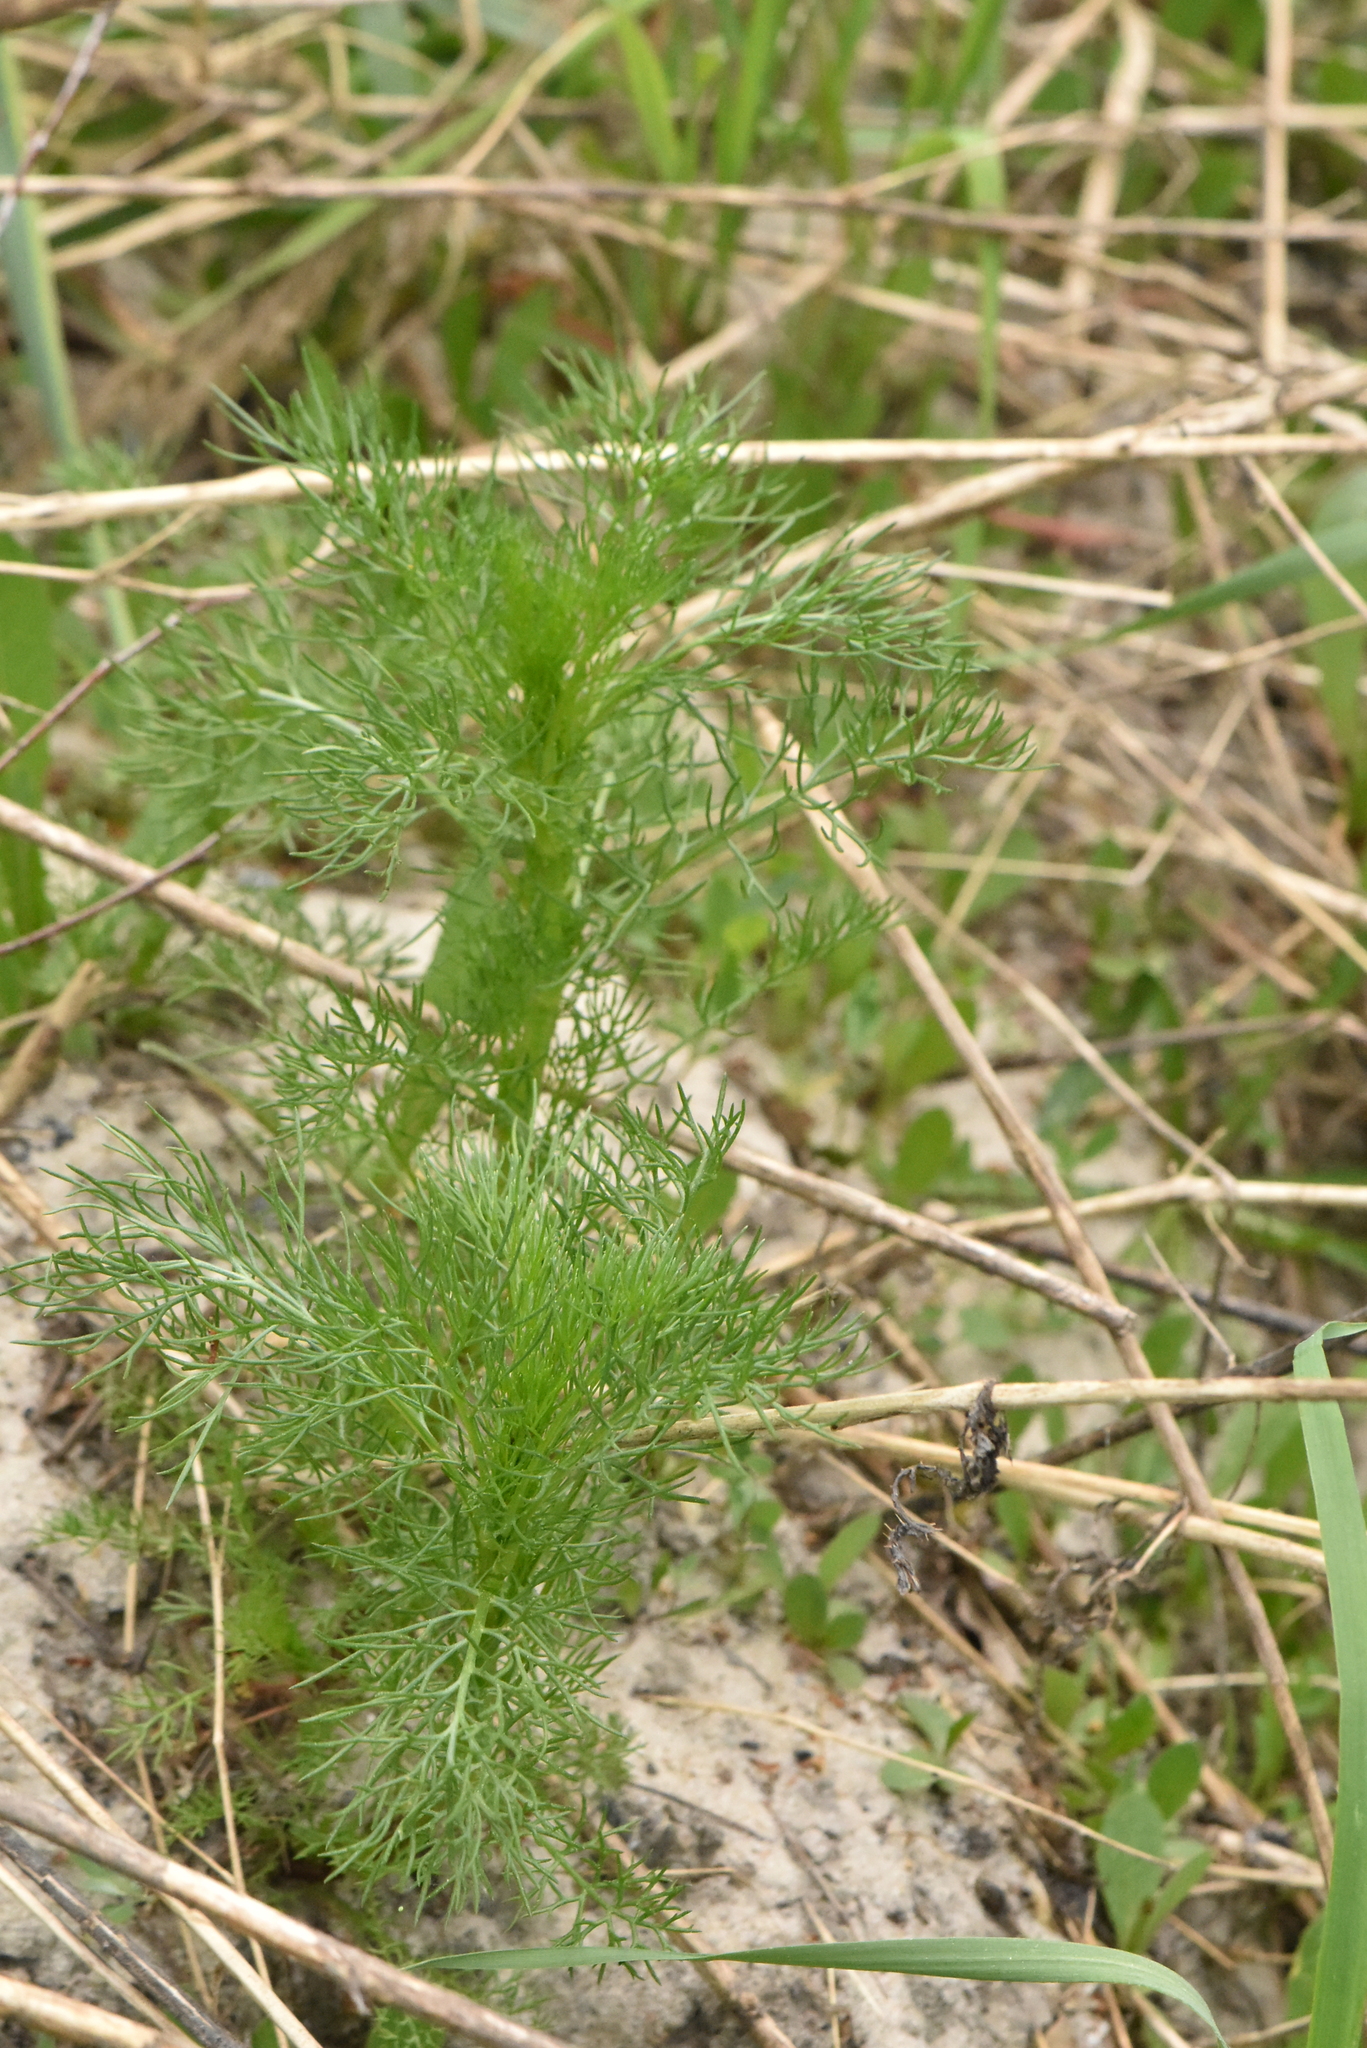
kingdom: Plantae
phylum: Tracheophyta
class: Magnoliopsida
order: Asterales
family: Asteraceae
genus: Tripleurospermum
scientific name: Tripleurospermum inodorum
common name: Scentless mayweed
